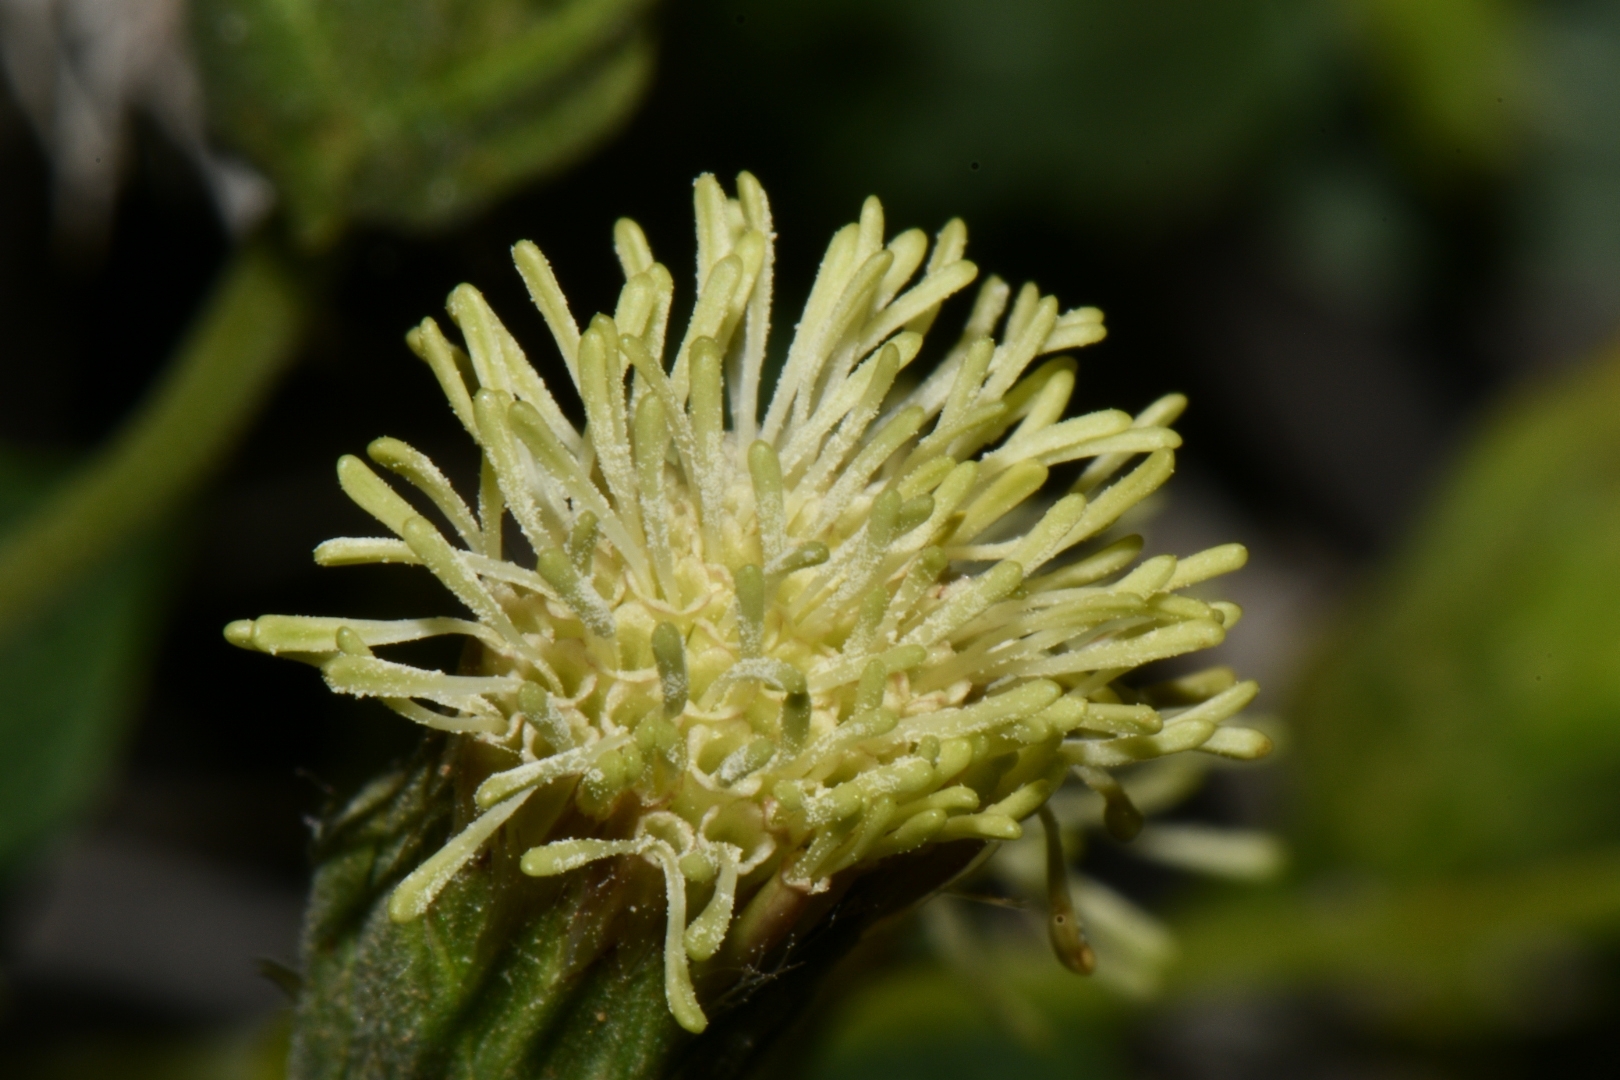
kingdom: Plantae
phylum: Tracheophyta
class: Magnoliopsida
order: Asterales
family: Asteraceae
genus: Brickellia
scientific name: Brickellia atractyloides
